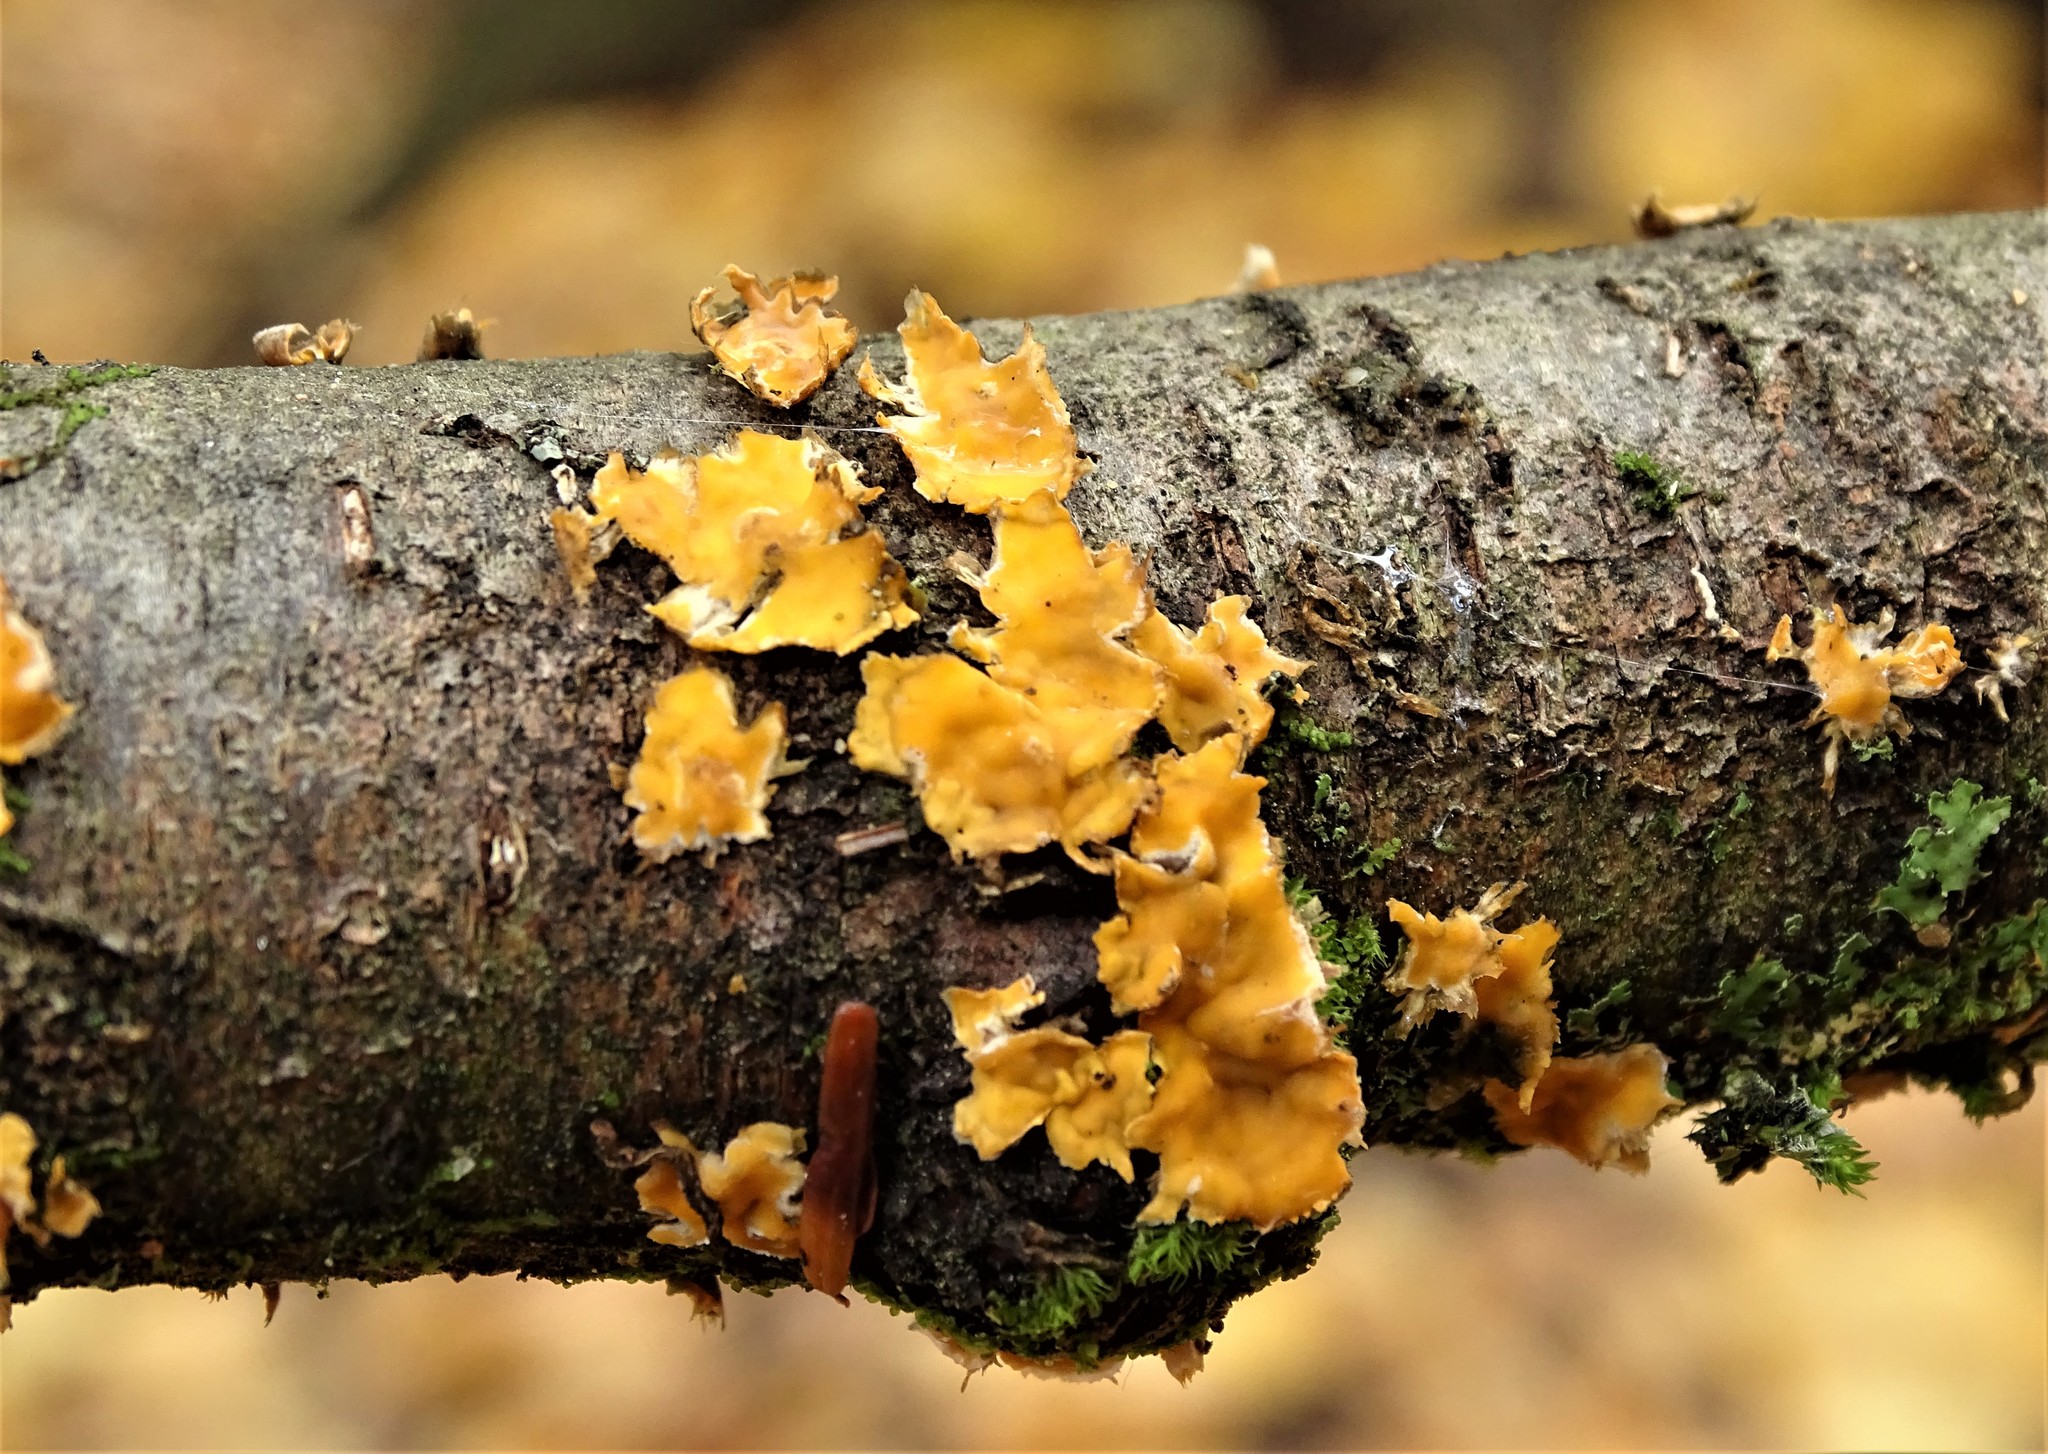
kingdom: Fungi
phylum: Basidiomycota
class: Agaricomycetes
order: Russulales
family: Stereaceae
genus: Stereum
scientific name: Stereum complicatum
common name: Crowded parchment
